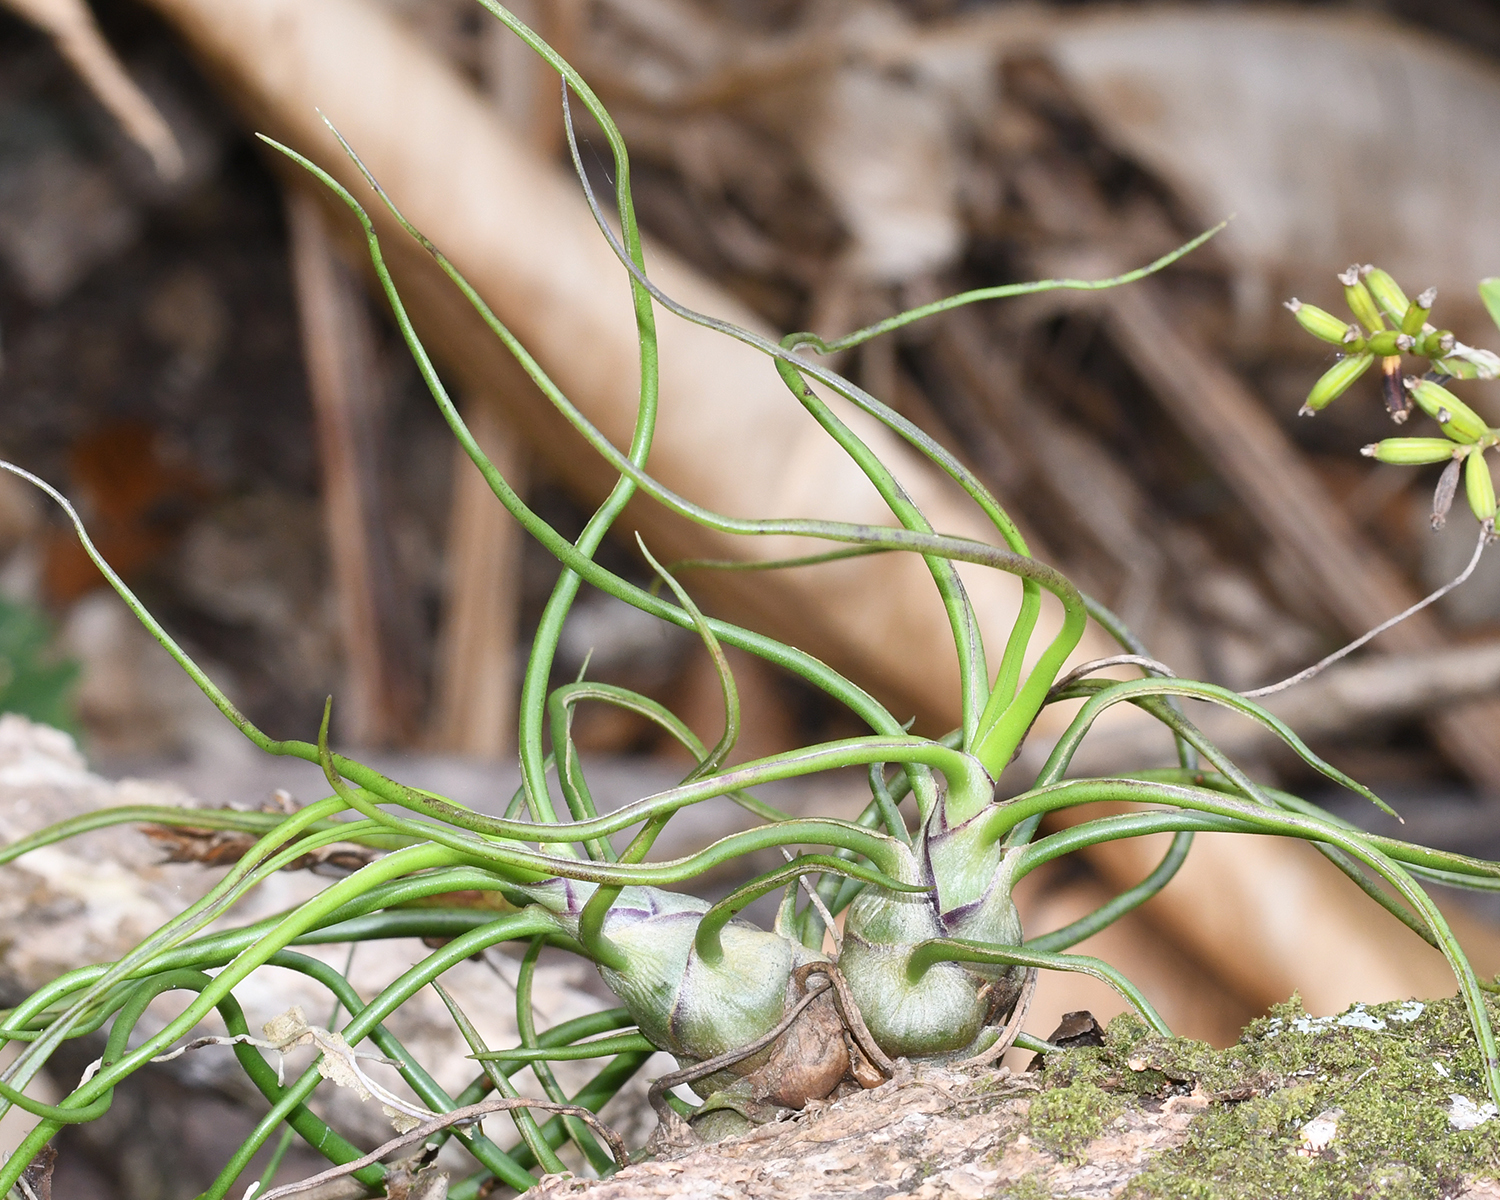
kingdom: Plantae
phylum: Tracheophyta
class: Liliopsida
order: Poales
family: Bromeliaceae
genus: Tillandsia
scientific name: Tillandsia bulbosa
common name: Bulbous airplant
